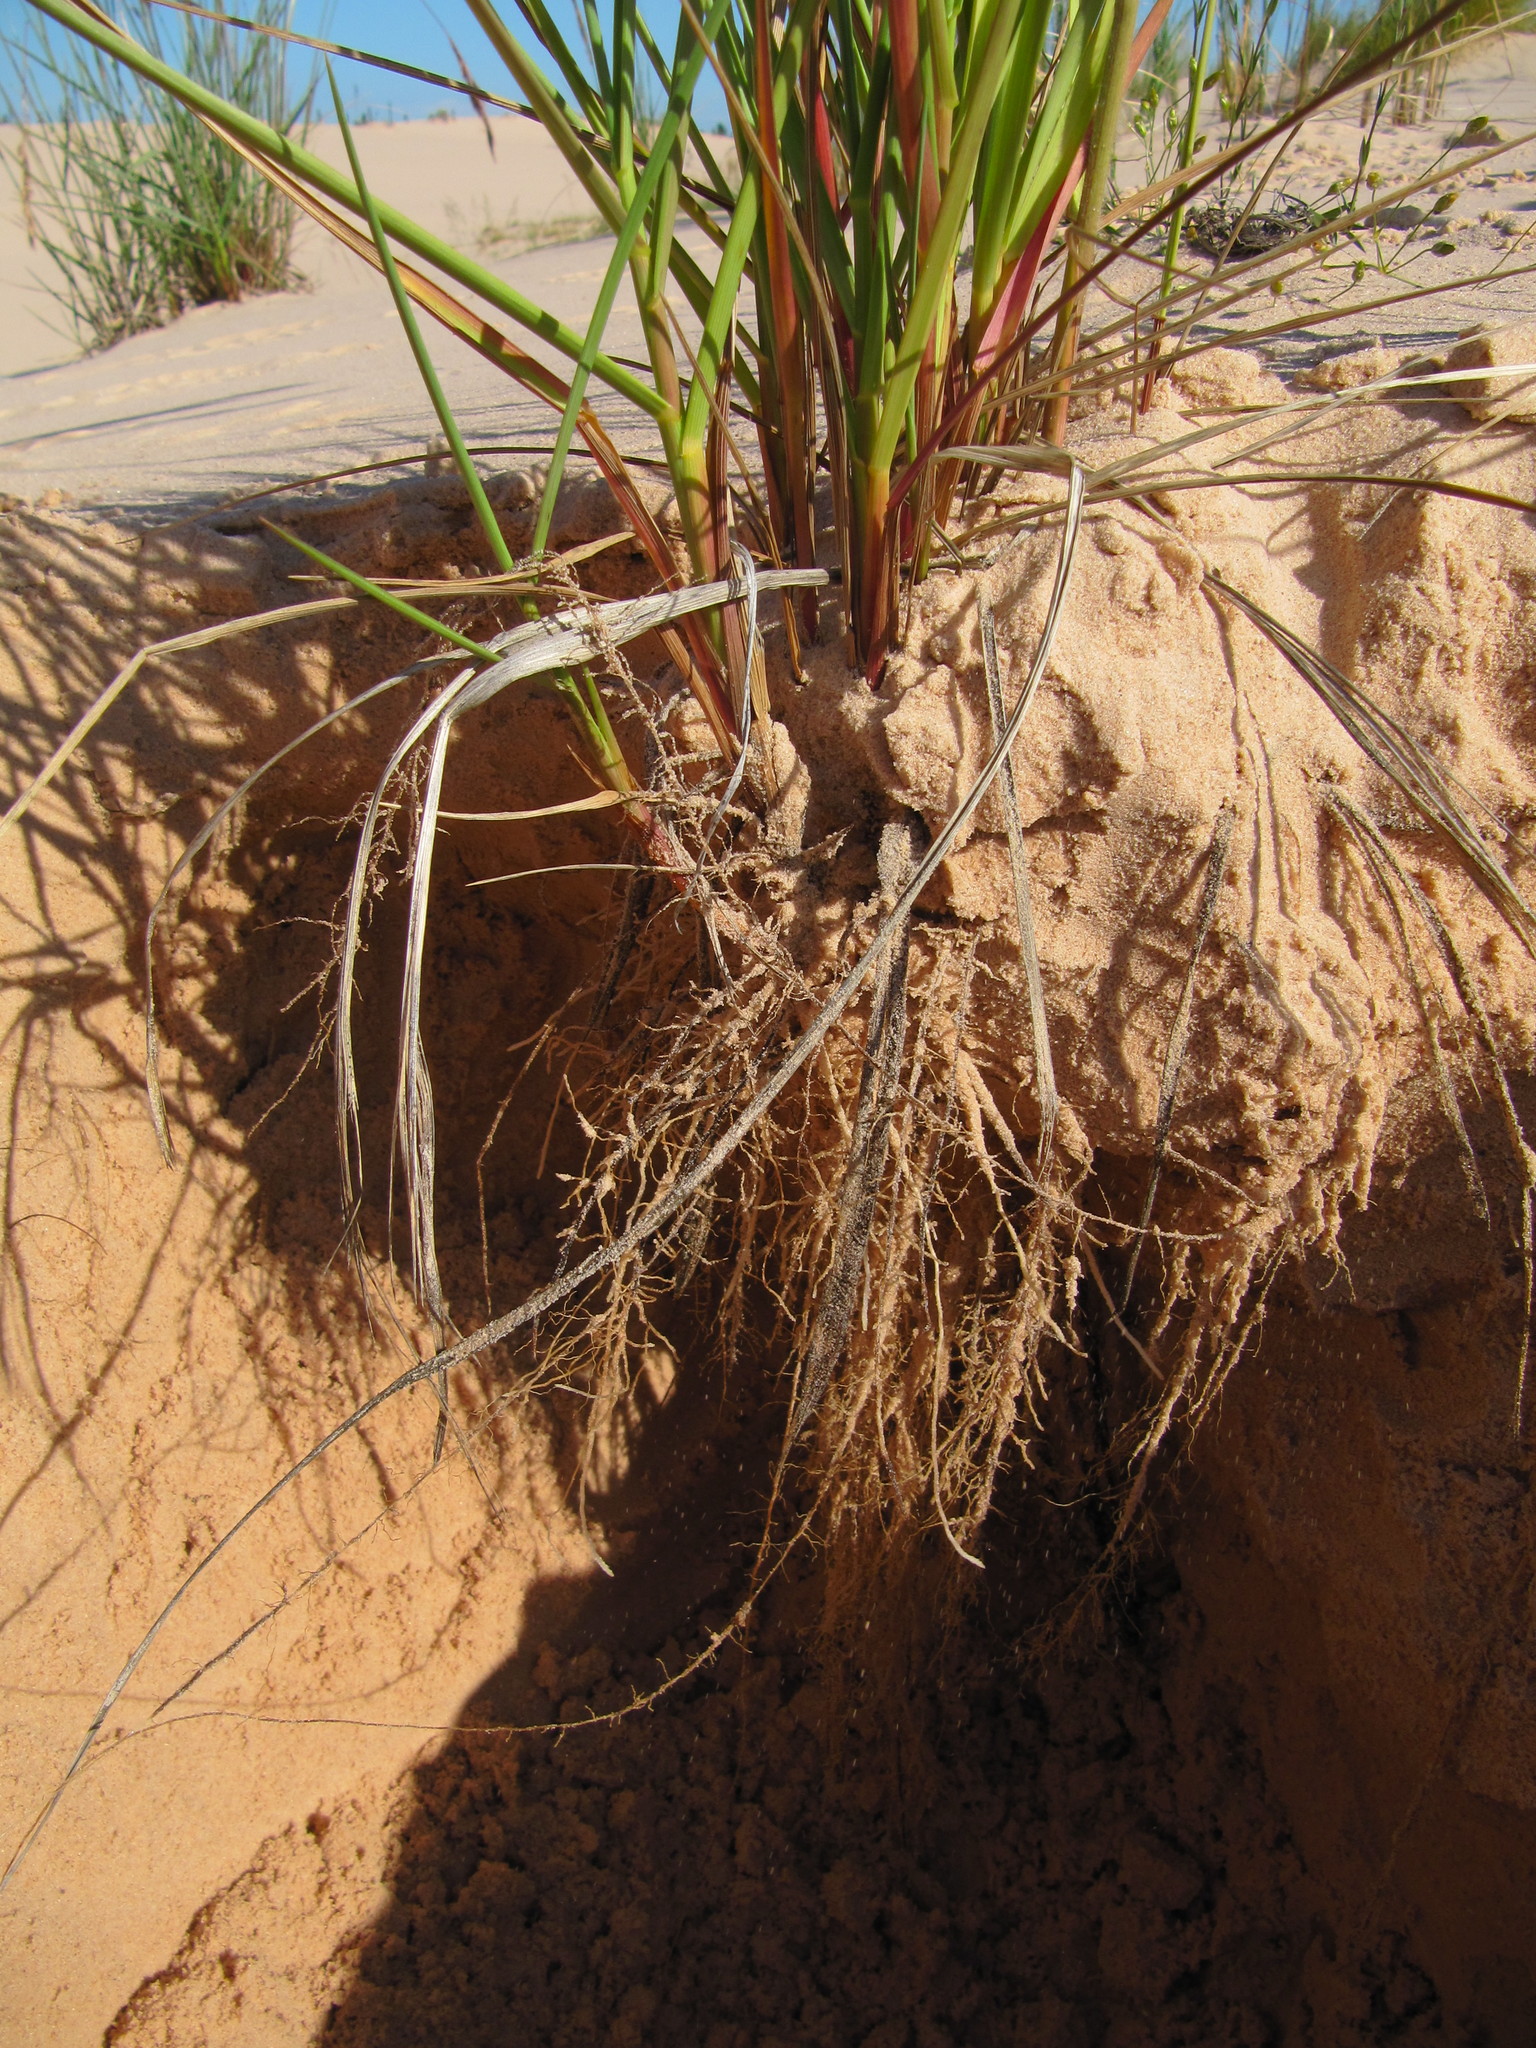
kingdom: Plantae
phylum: Tracheophyta
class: Liliopsida
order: Poales
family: Poaceae
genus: Bromus
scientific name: Bromus pumpellianus
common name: Pumpelly's brome
